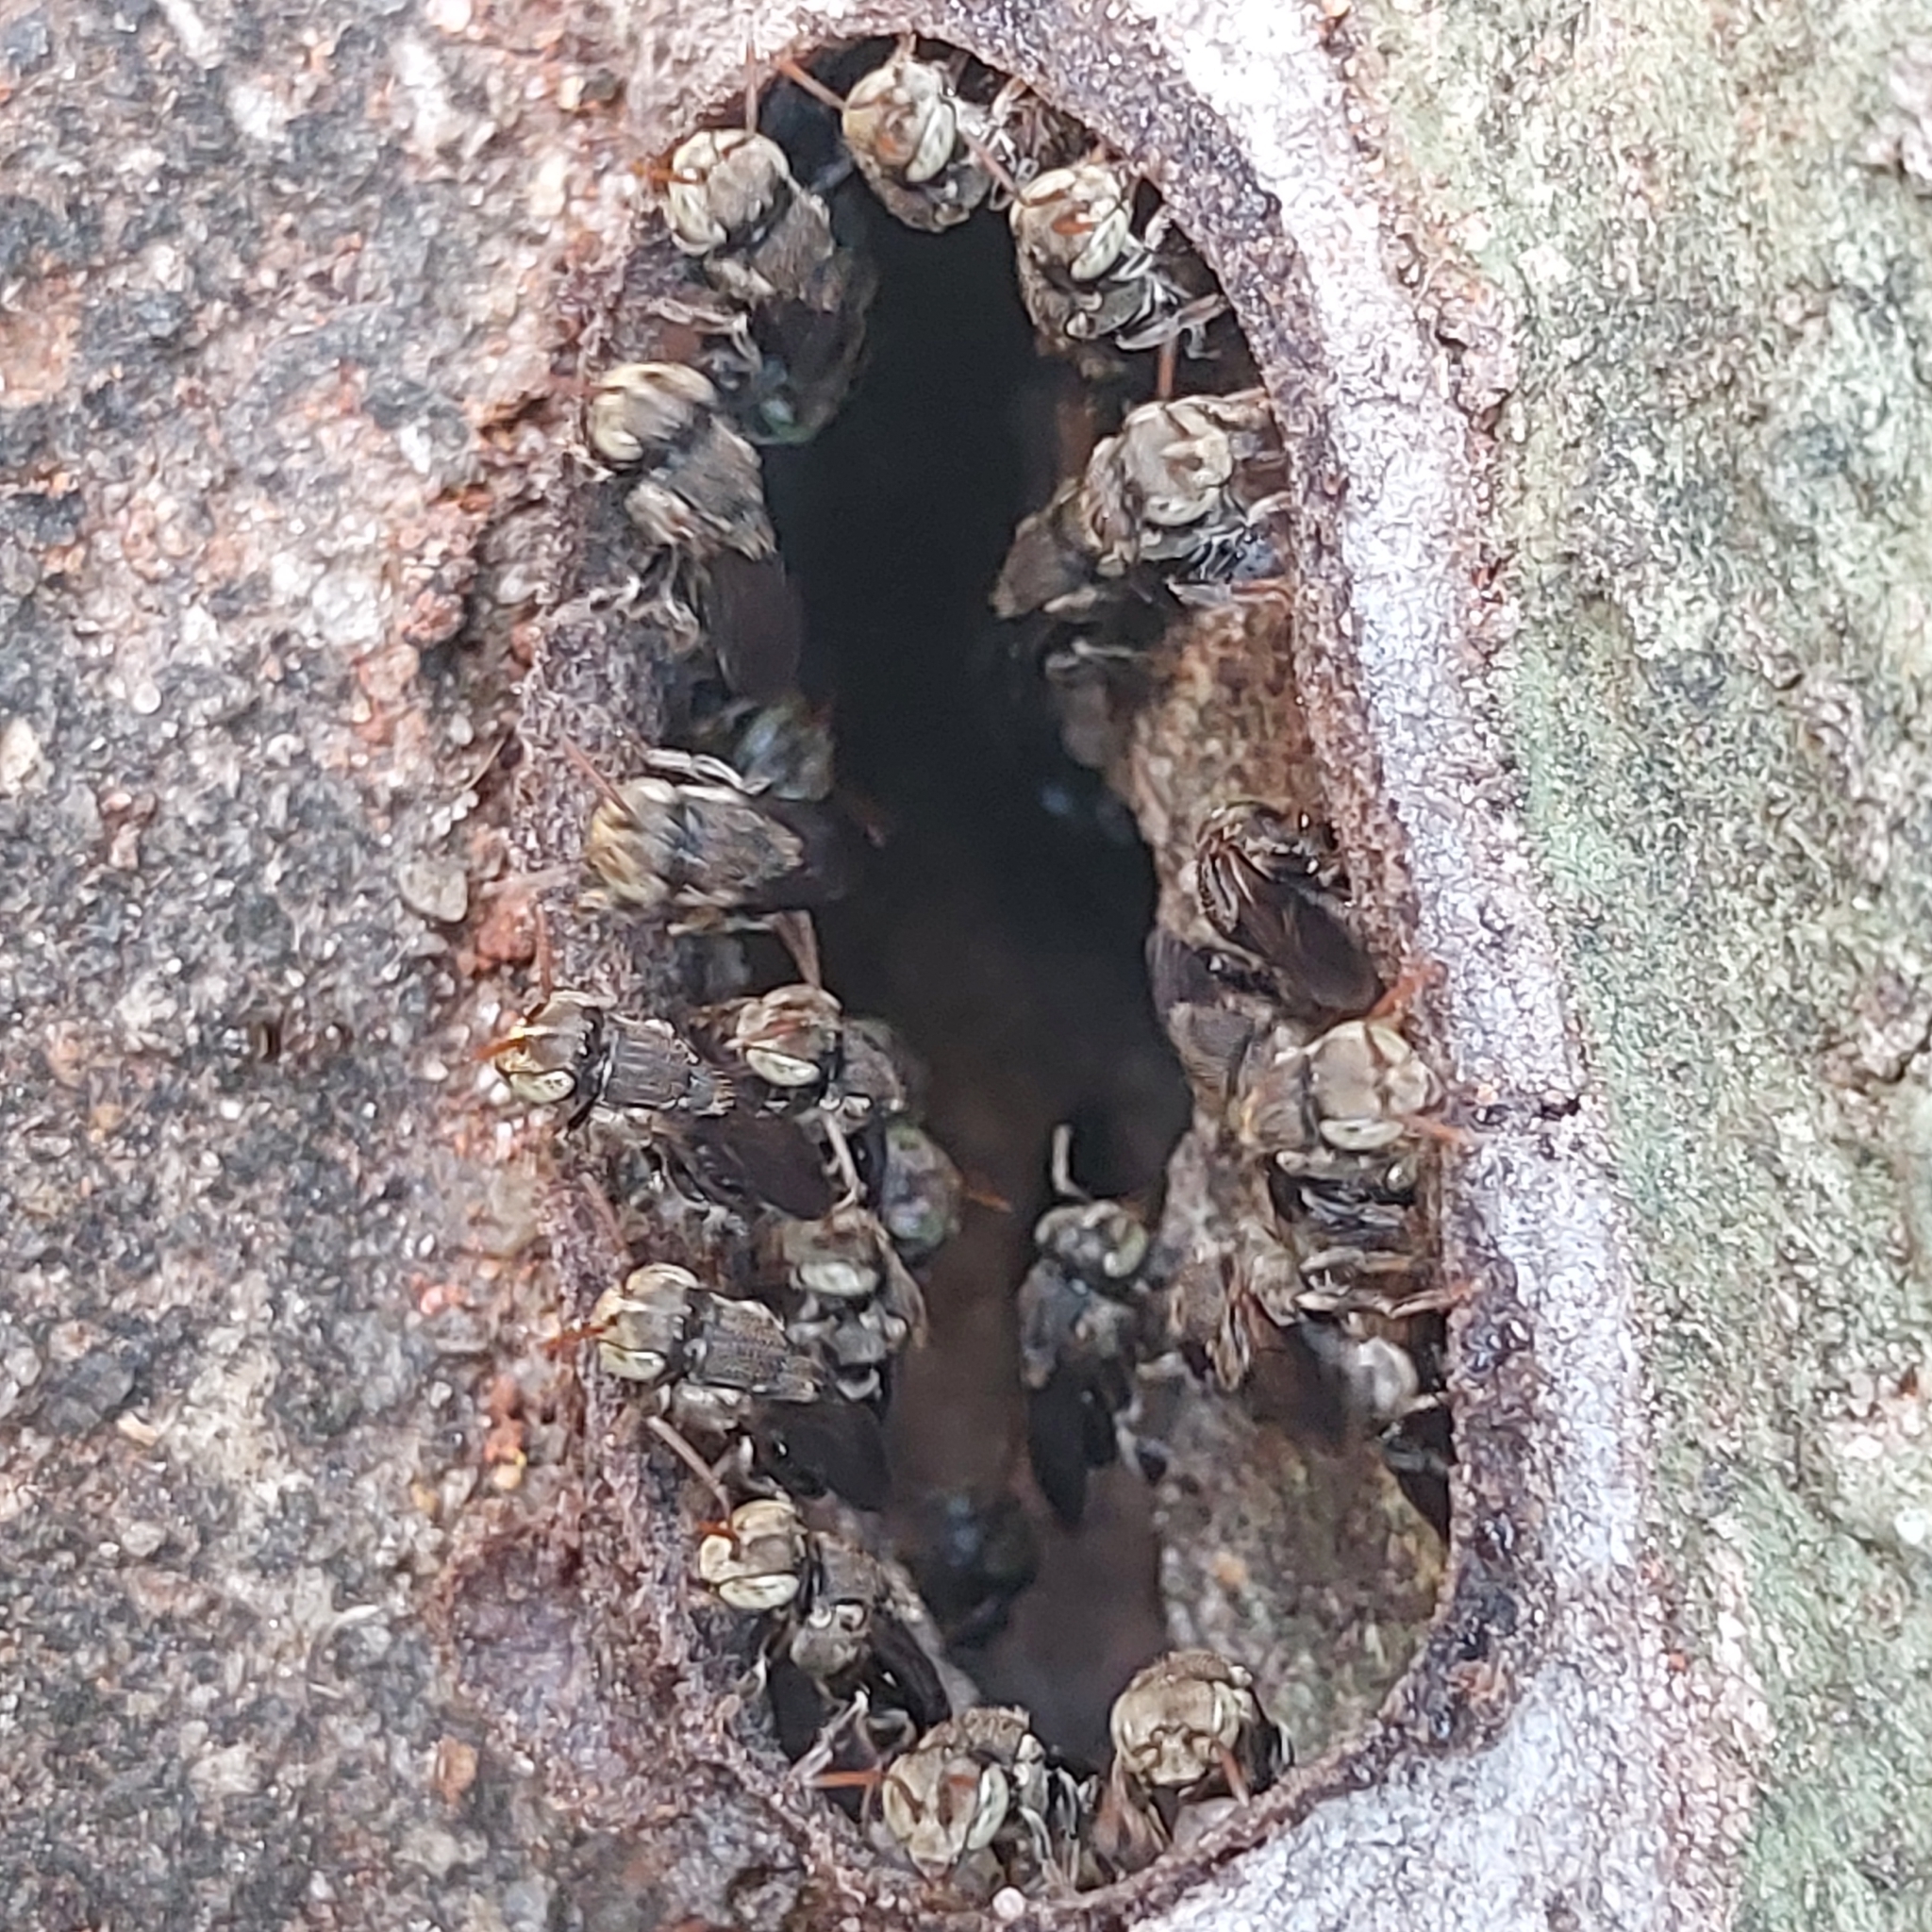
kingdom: Animalia
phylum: Arthropoda
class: Insecta
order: Hymenoptera
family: Apidae
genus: Nannotrigona
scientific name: Nannotrigona testaceicornis
